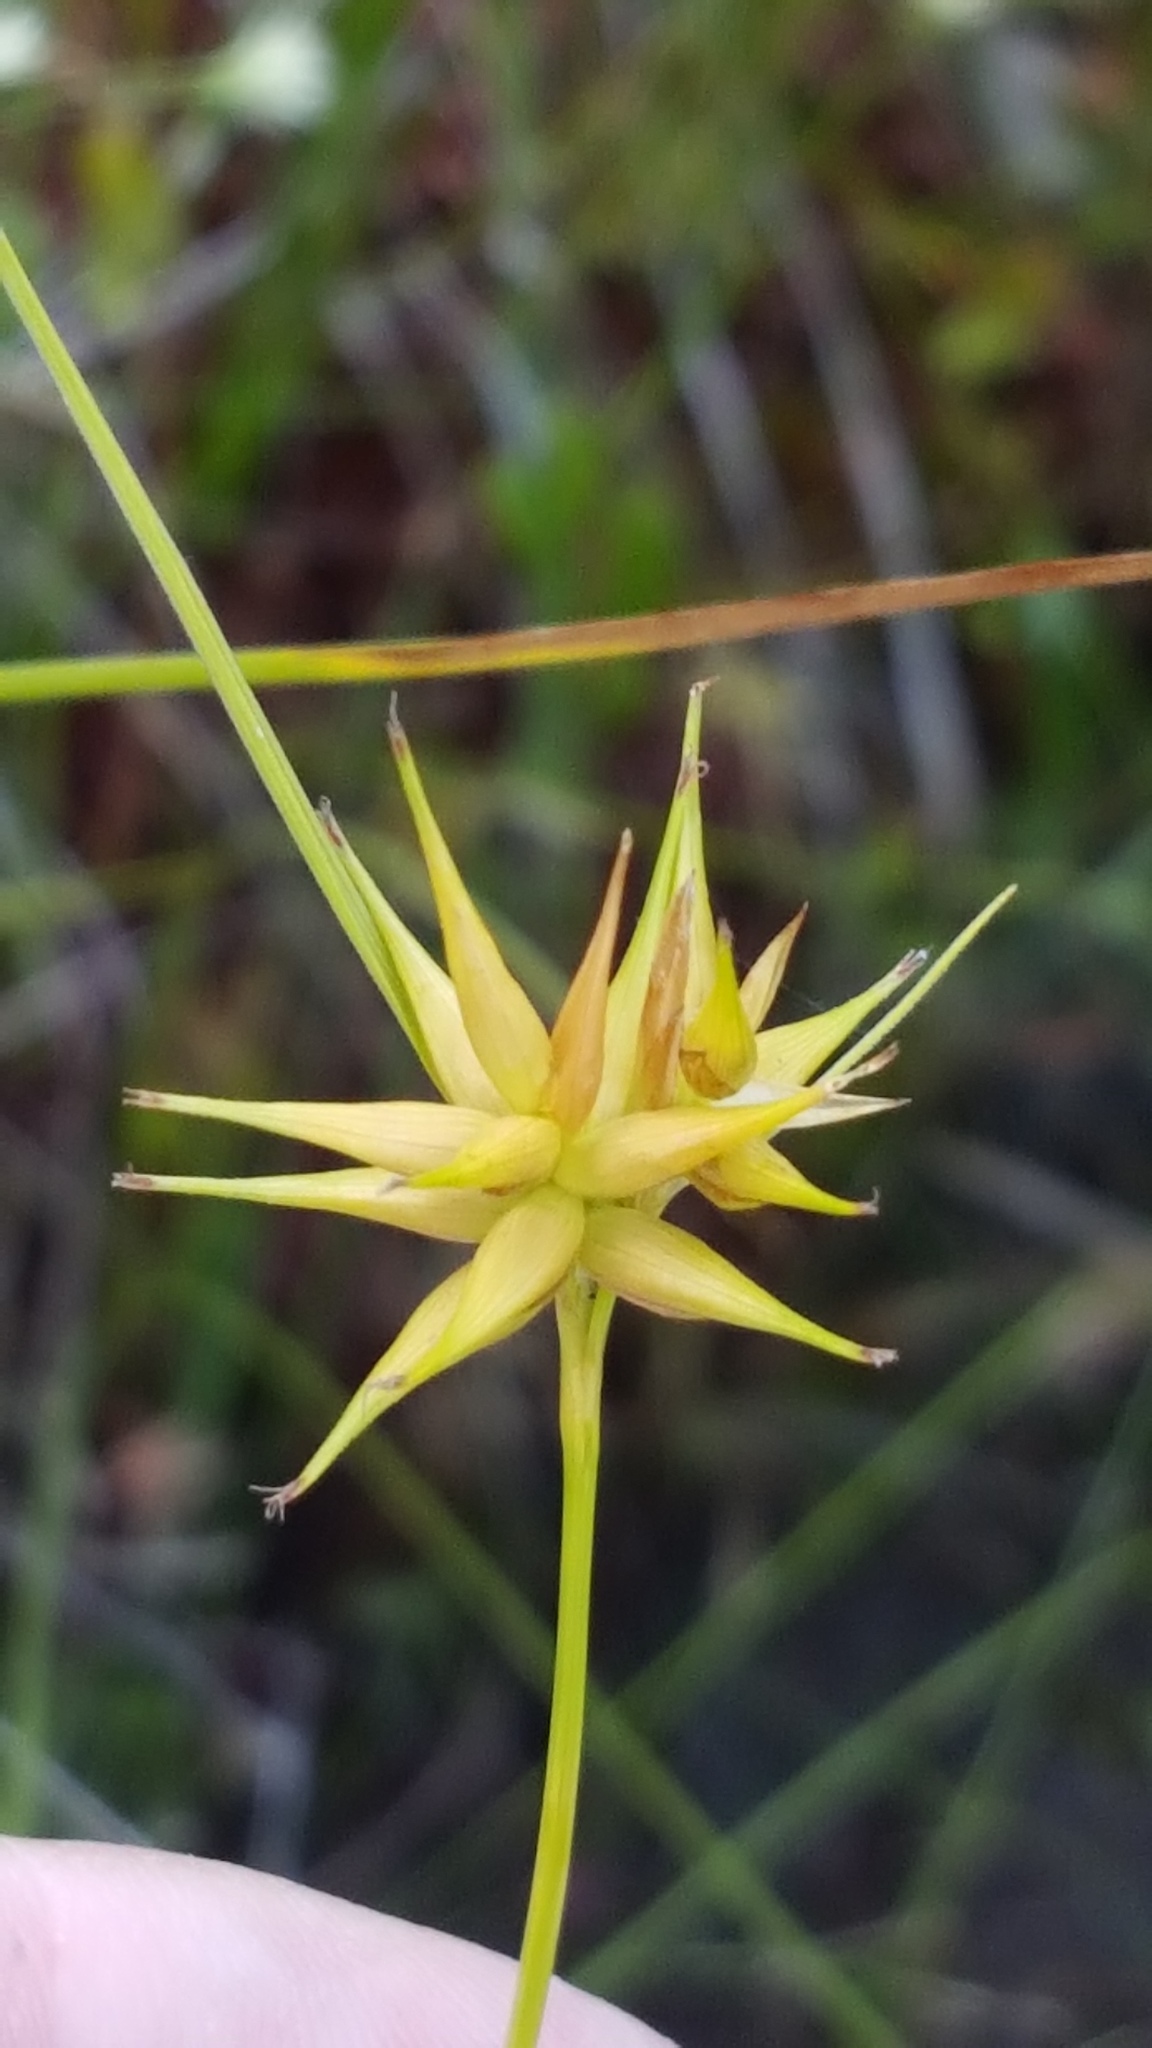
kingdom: Plantae
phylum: Tracheophyta
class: Liliopsida
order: Poales
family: Cyperaceae
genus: Carex
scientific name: Carex michauxiana
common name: Michaux's sedge
